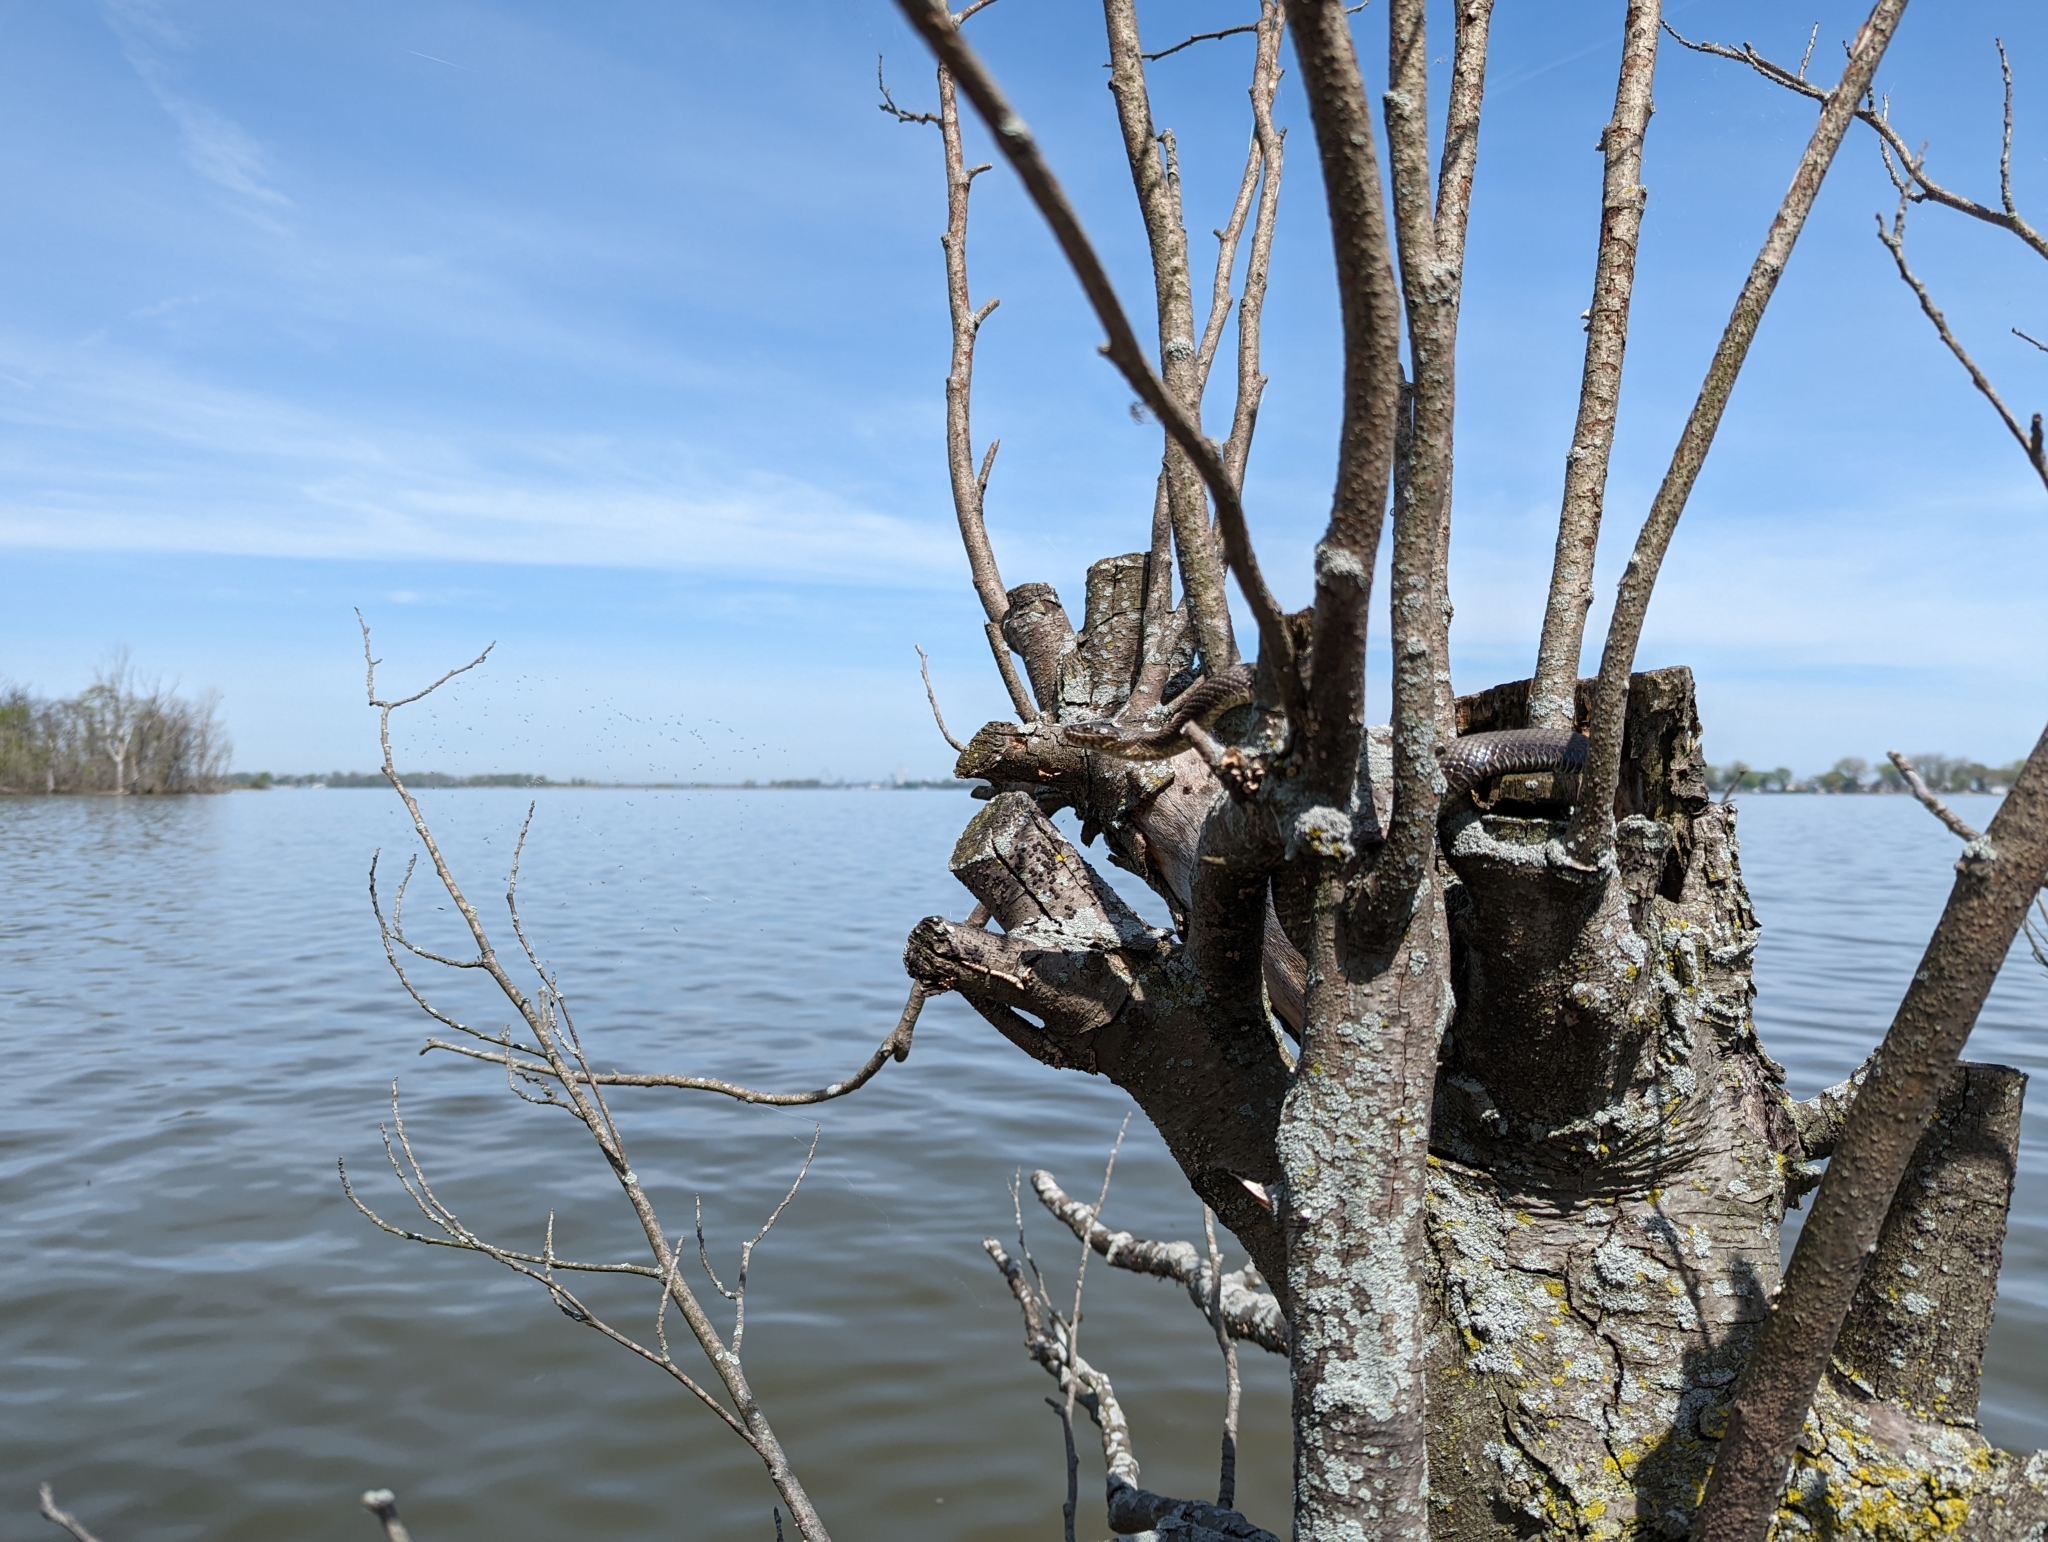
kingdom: Animalia
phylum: Chordata
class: Squamata
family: Colubridae
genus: Nerodia
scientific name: Nerodia sipedon
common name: Northern water snake
